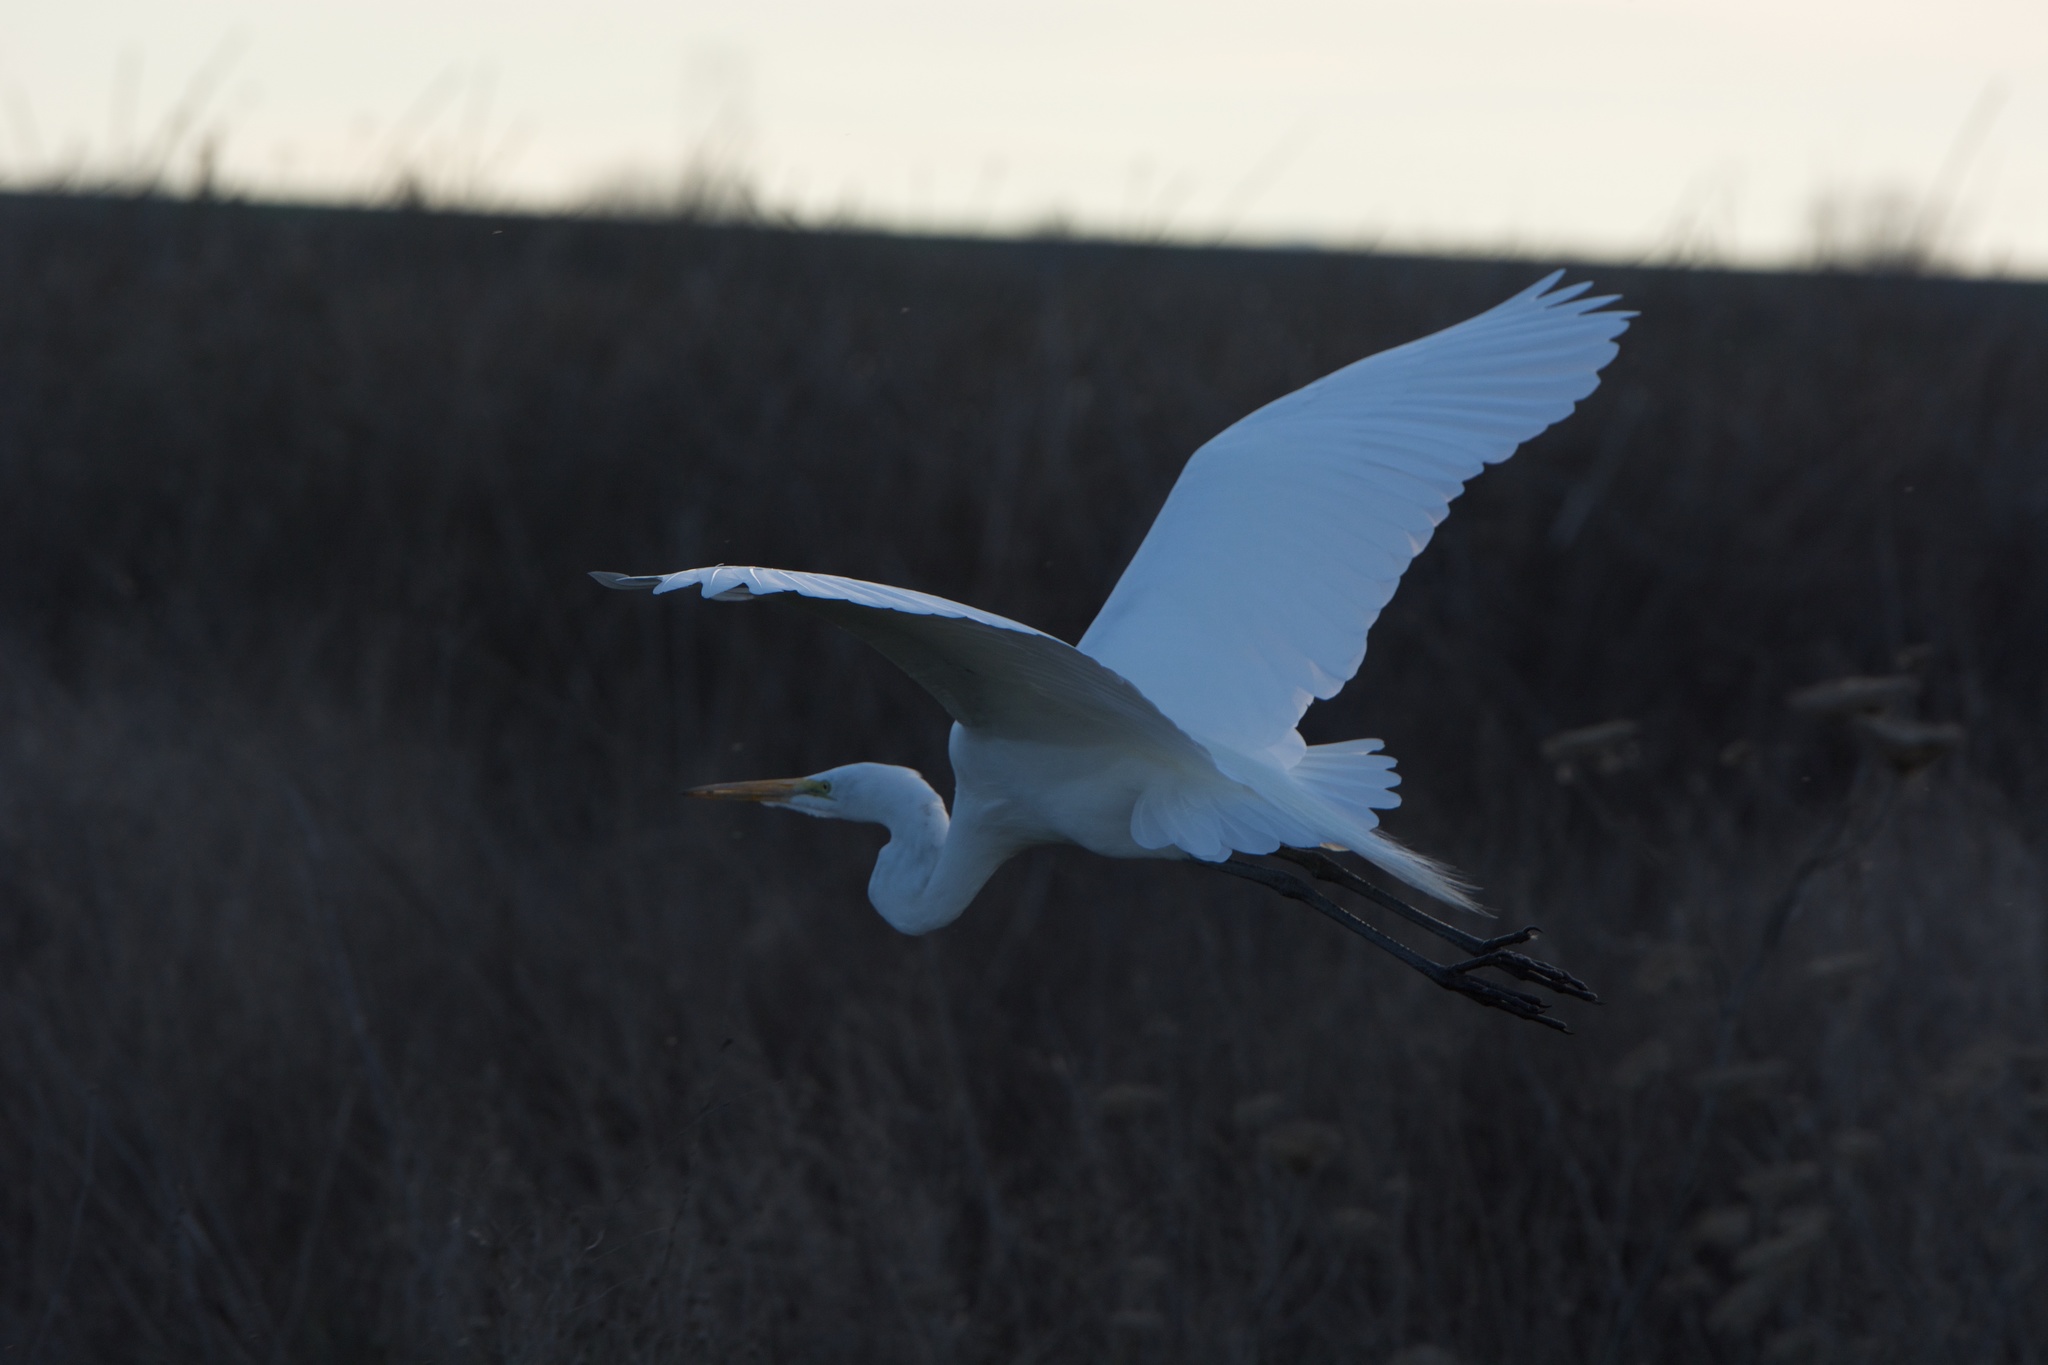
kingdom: Animalia
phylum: Chordata
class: Aves
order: Pelecaniformes
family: Ardeidae
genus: Ardea
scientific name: Ardea alba
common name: Great egret
